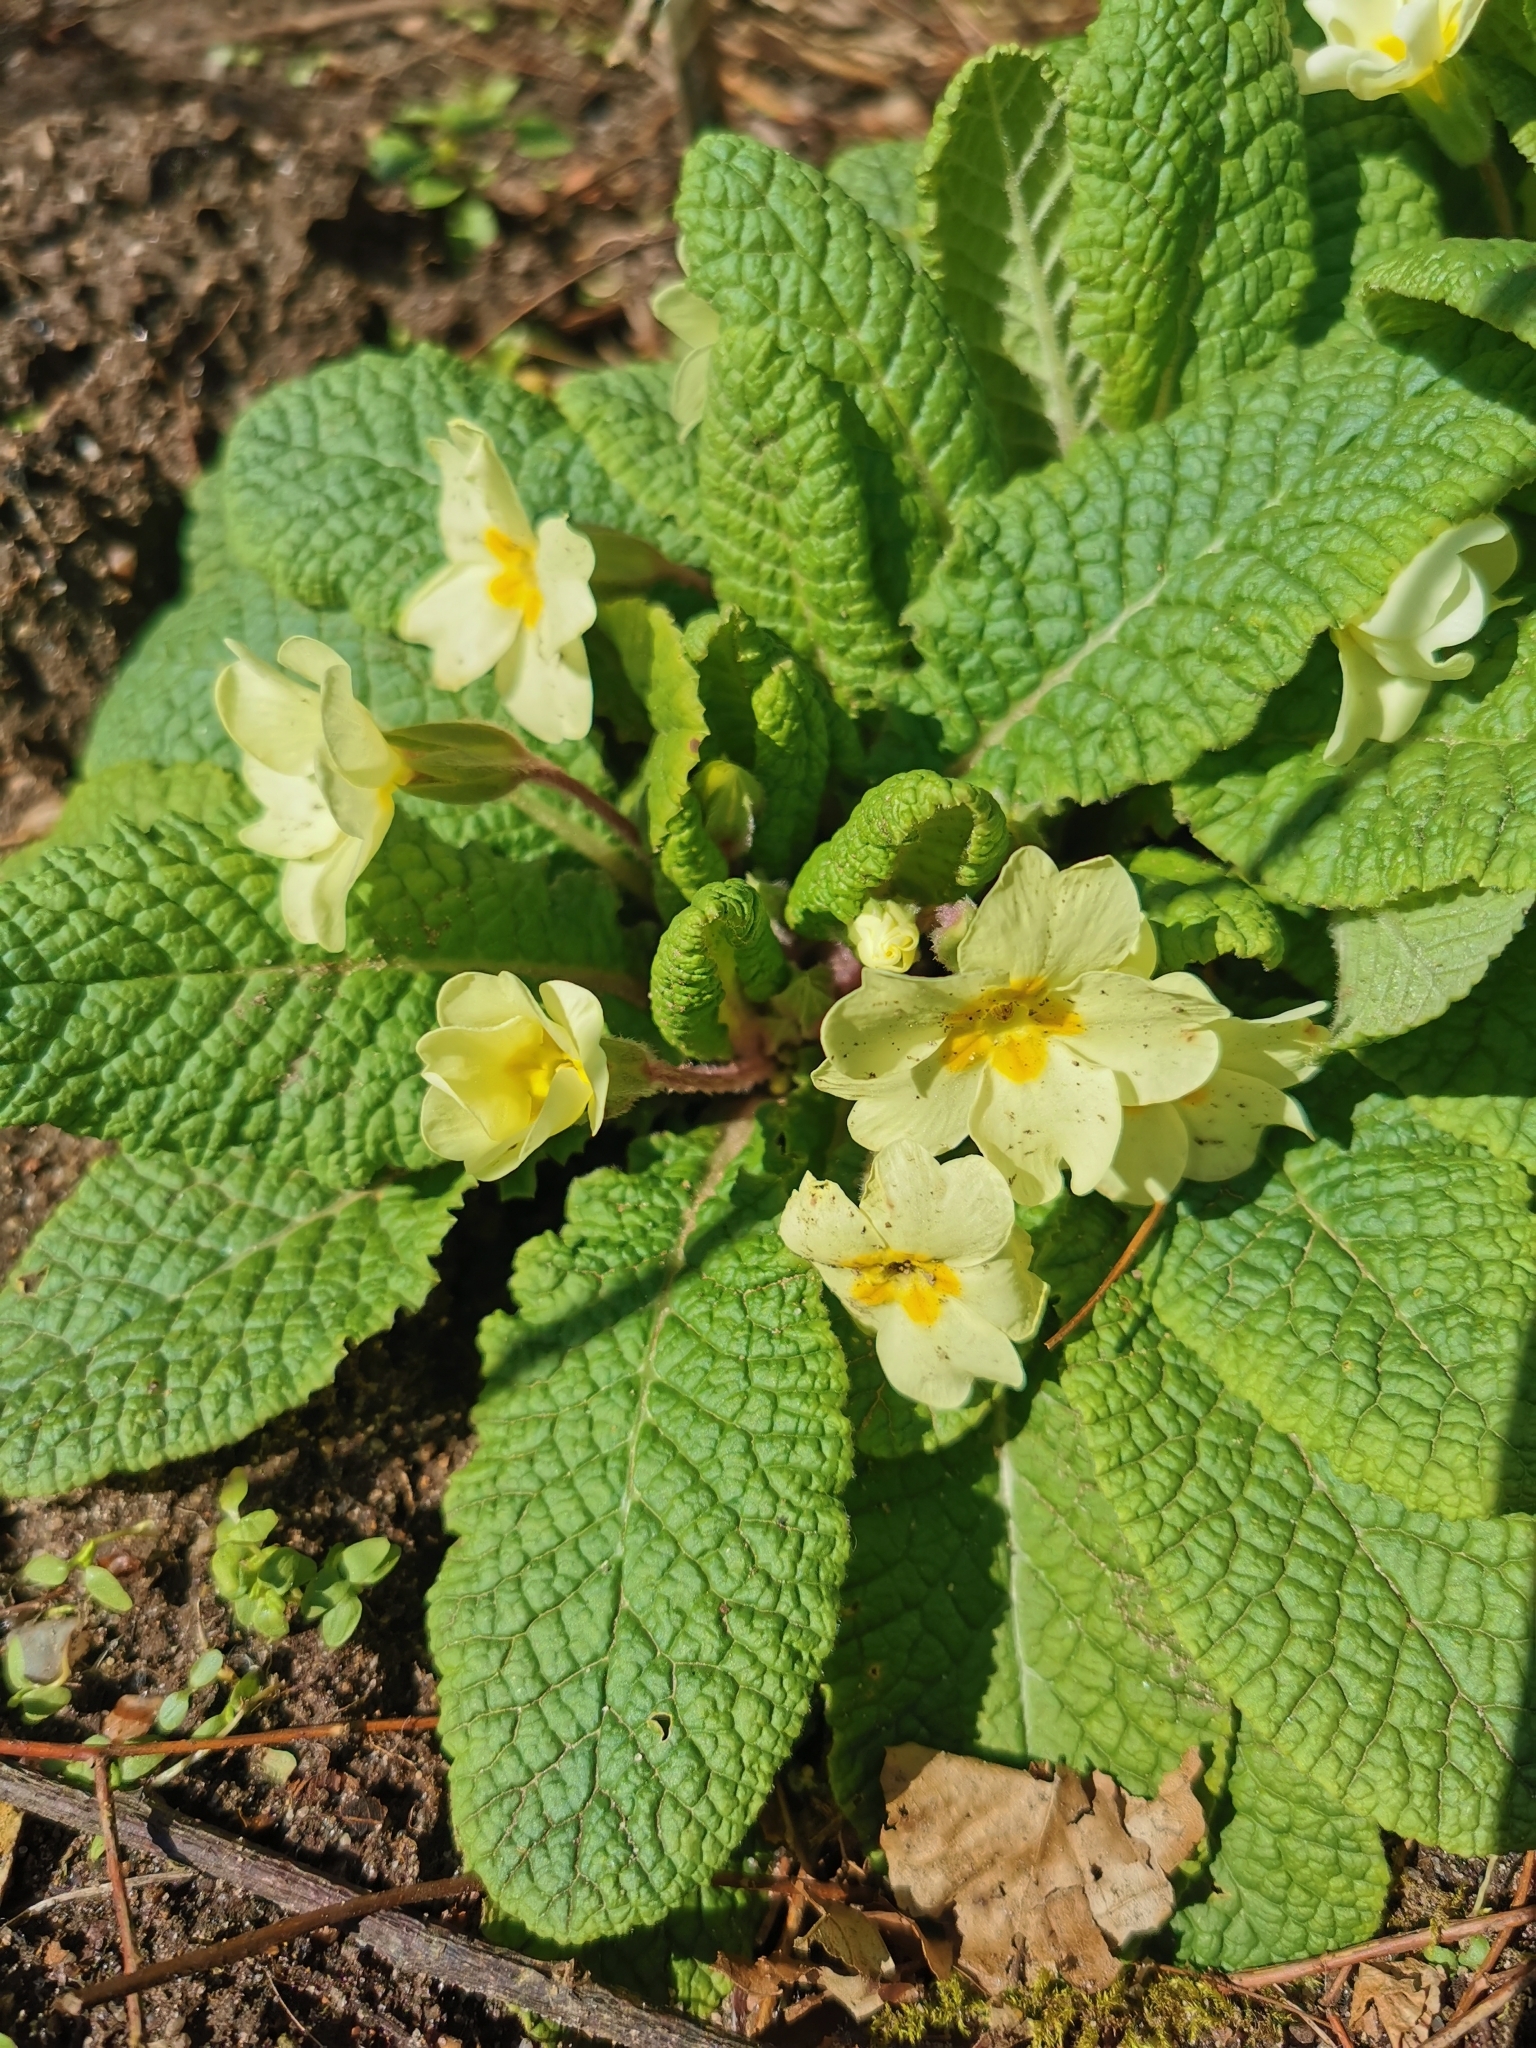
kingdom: Plantae
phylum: Tracheophyta
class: Magnoliopsida
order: Ericales
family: Primulaceae
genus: Primula
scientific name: Primula vulgaris
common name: Primrose
